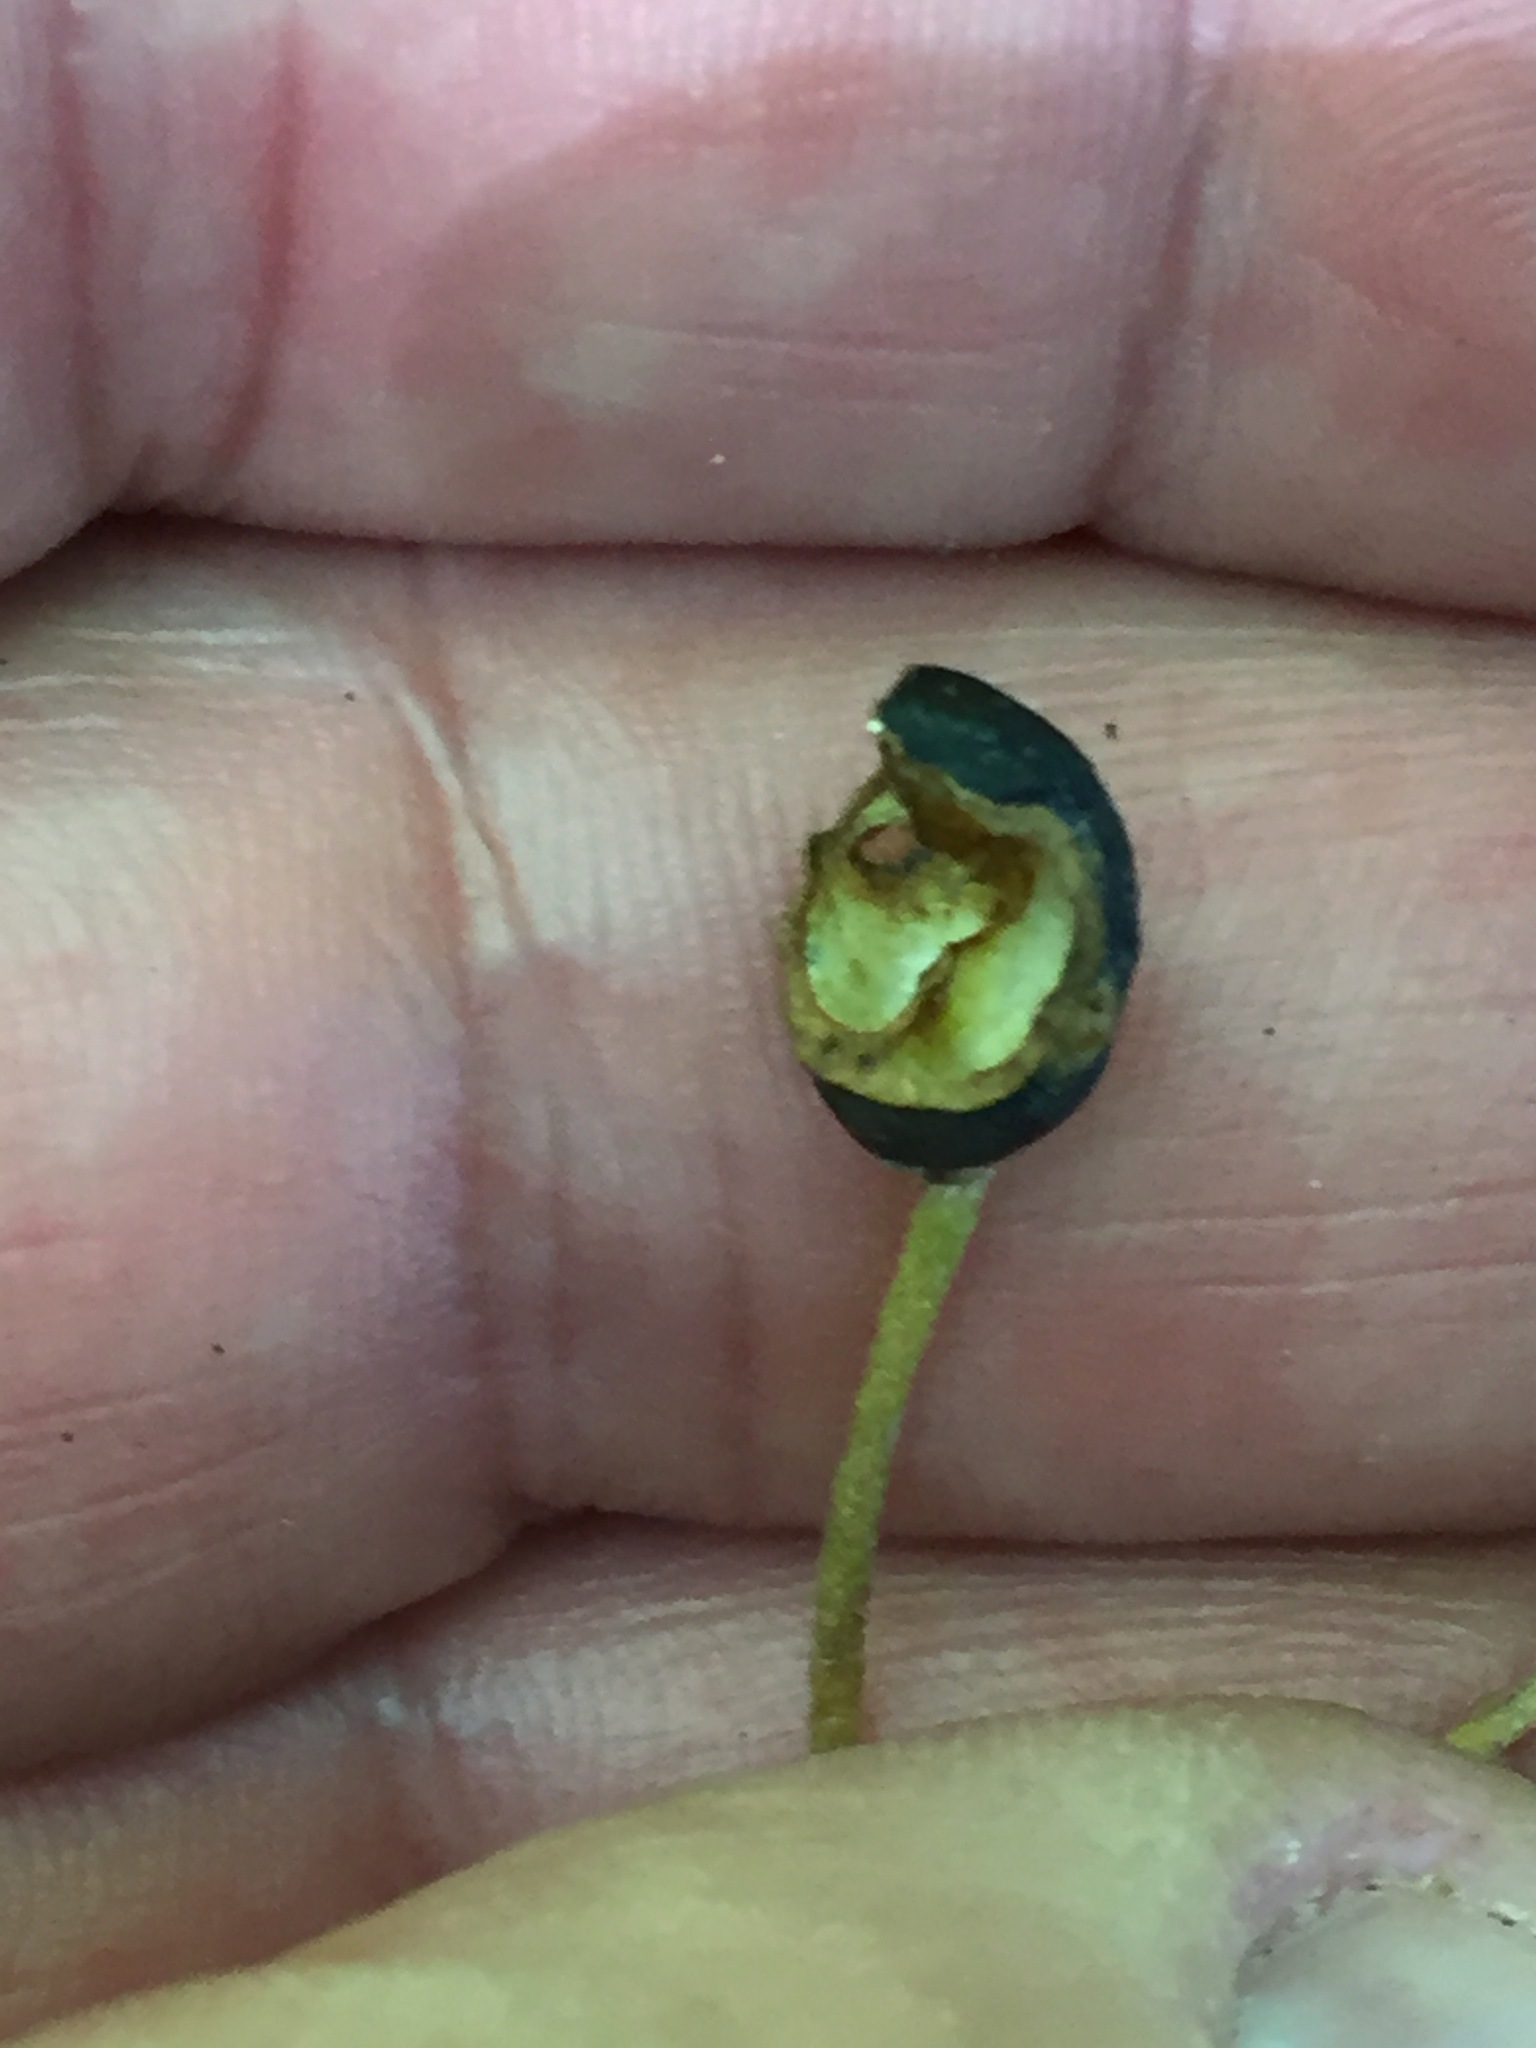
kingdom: Plantae
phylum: Tracheophyta
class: Liliopsida
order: Liliales
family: Liliaceae
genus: Clintonia
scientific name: Clintonia borealis
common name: Yellow clintonia
